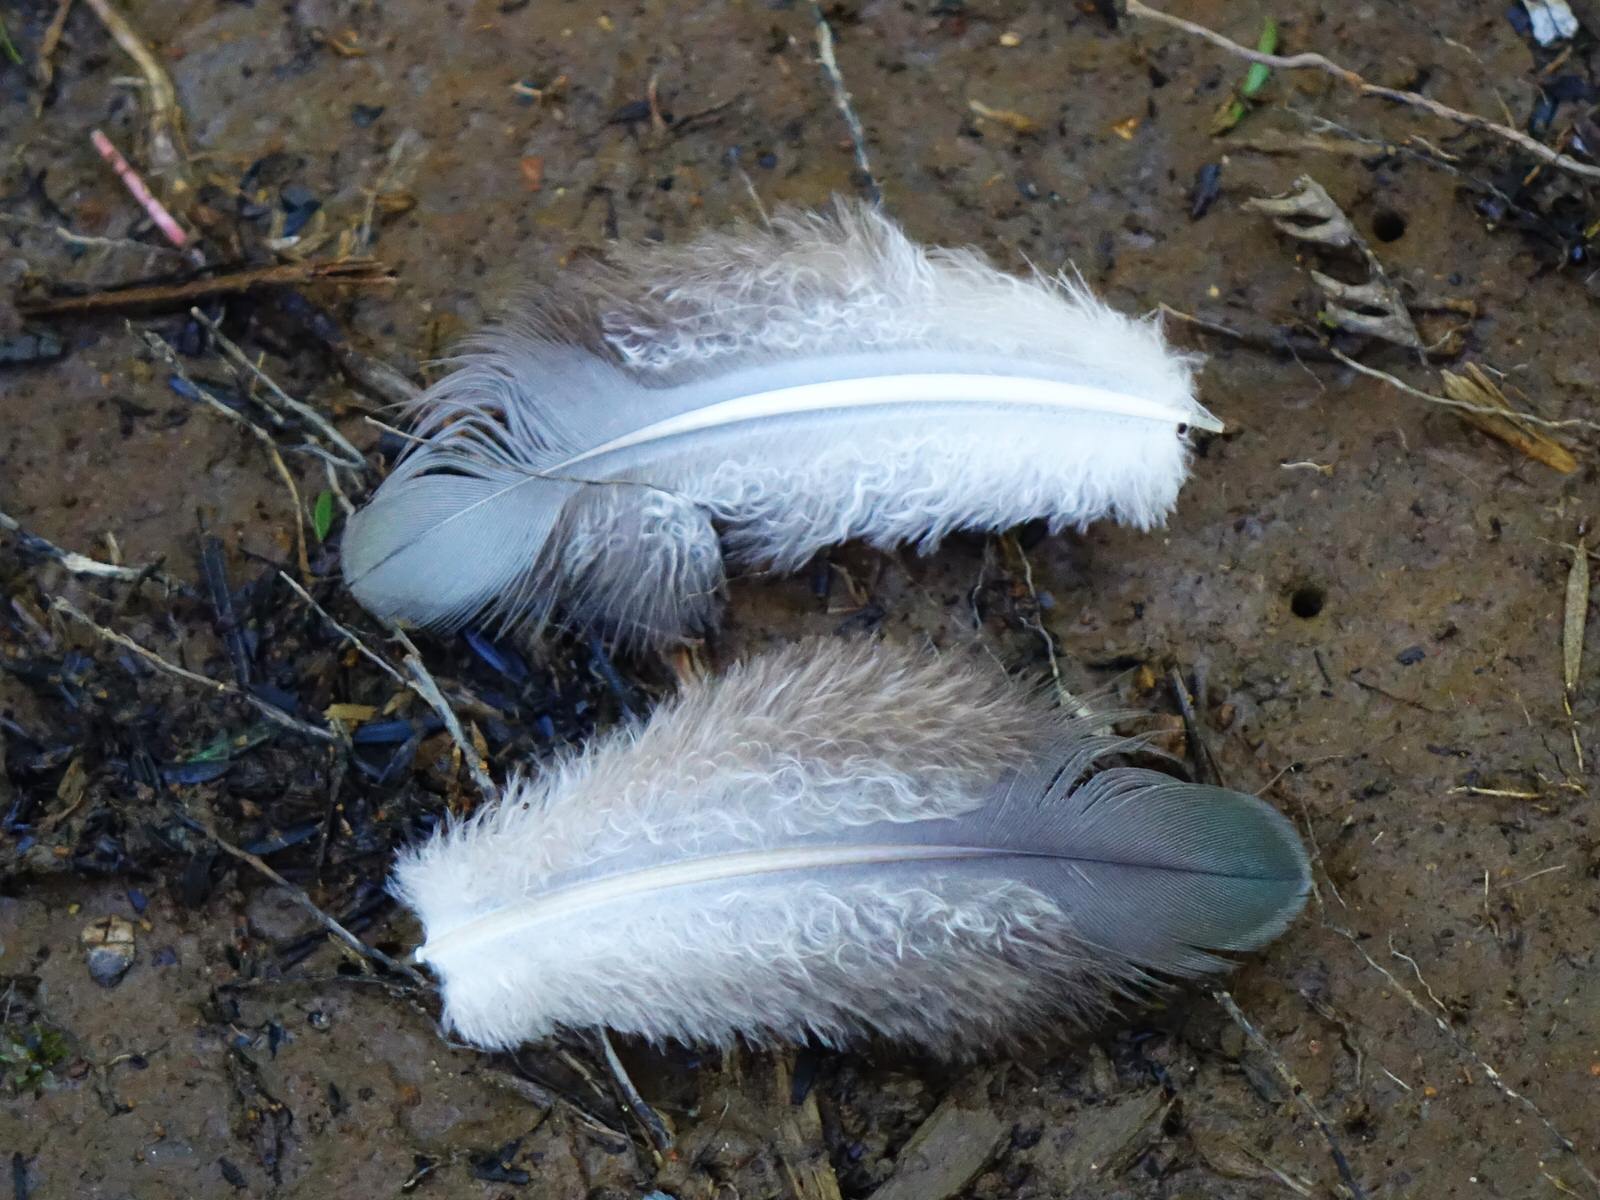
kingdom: Animalia
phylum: Chordata
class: Aves
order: Columbiformes
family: Columbidae
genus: Hemiphaga
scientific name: Hemiphaga novaeseelandiae
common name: New zealand pigeon
